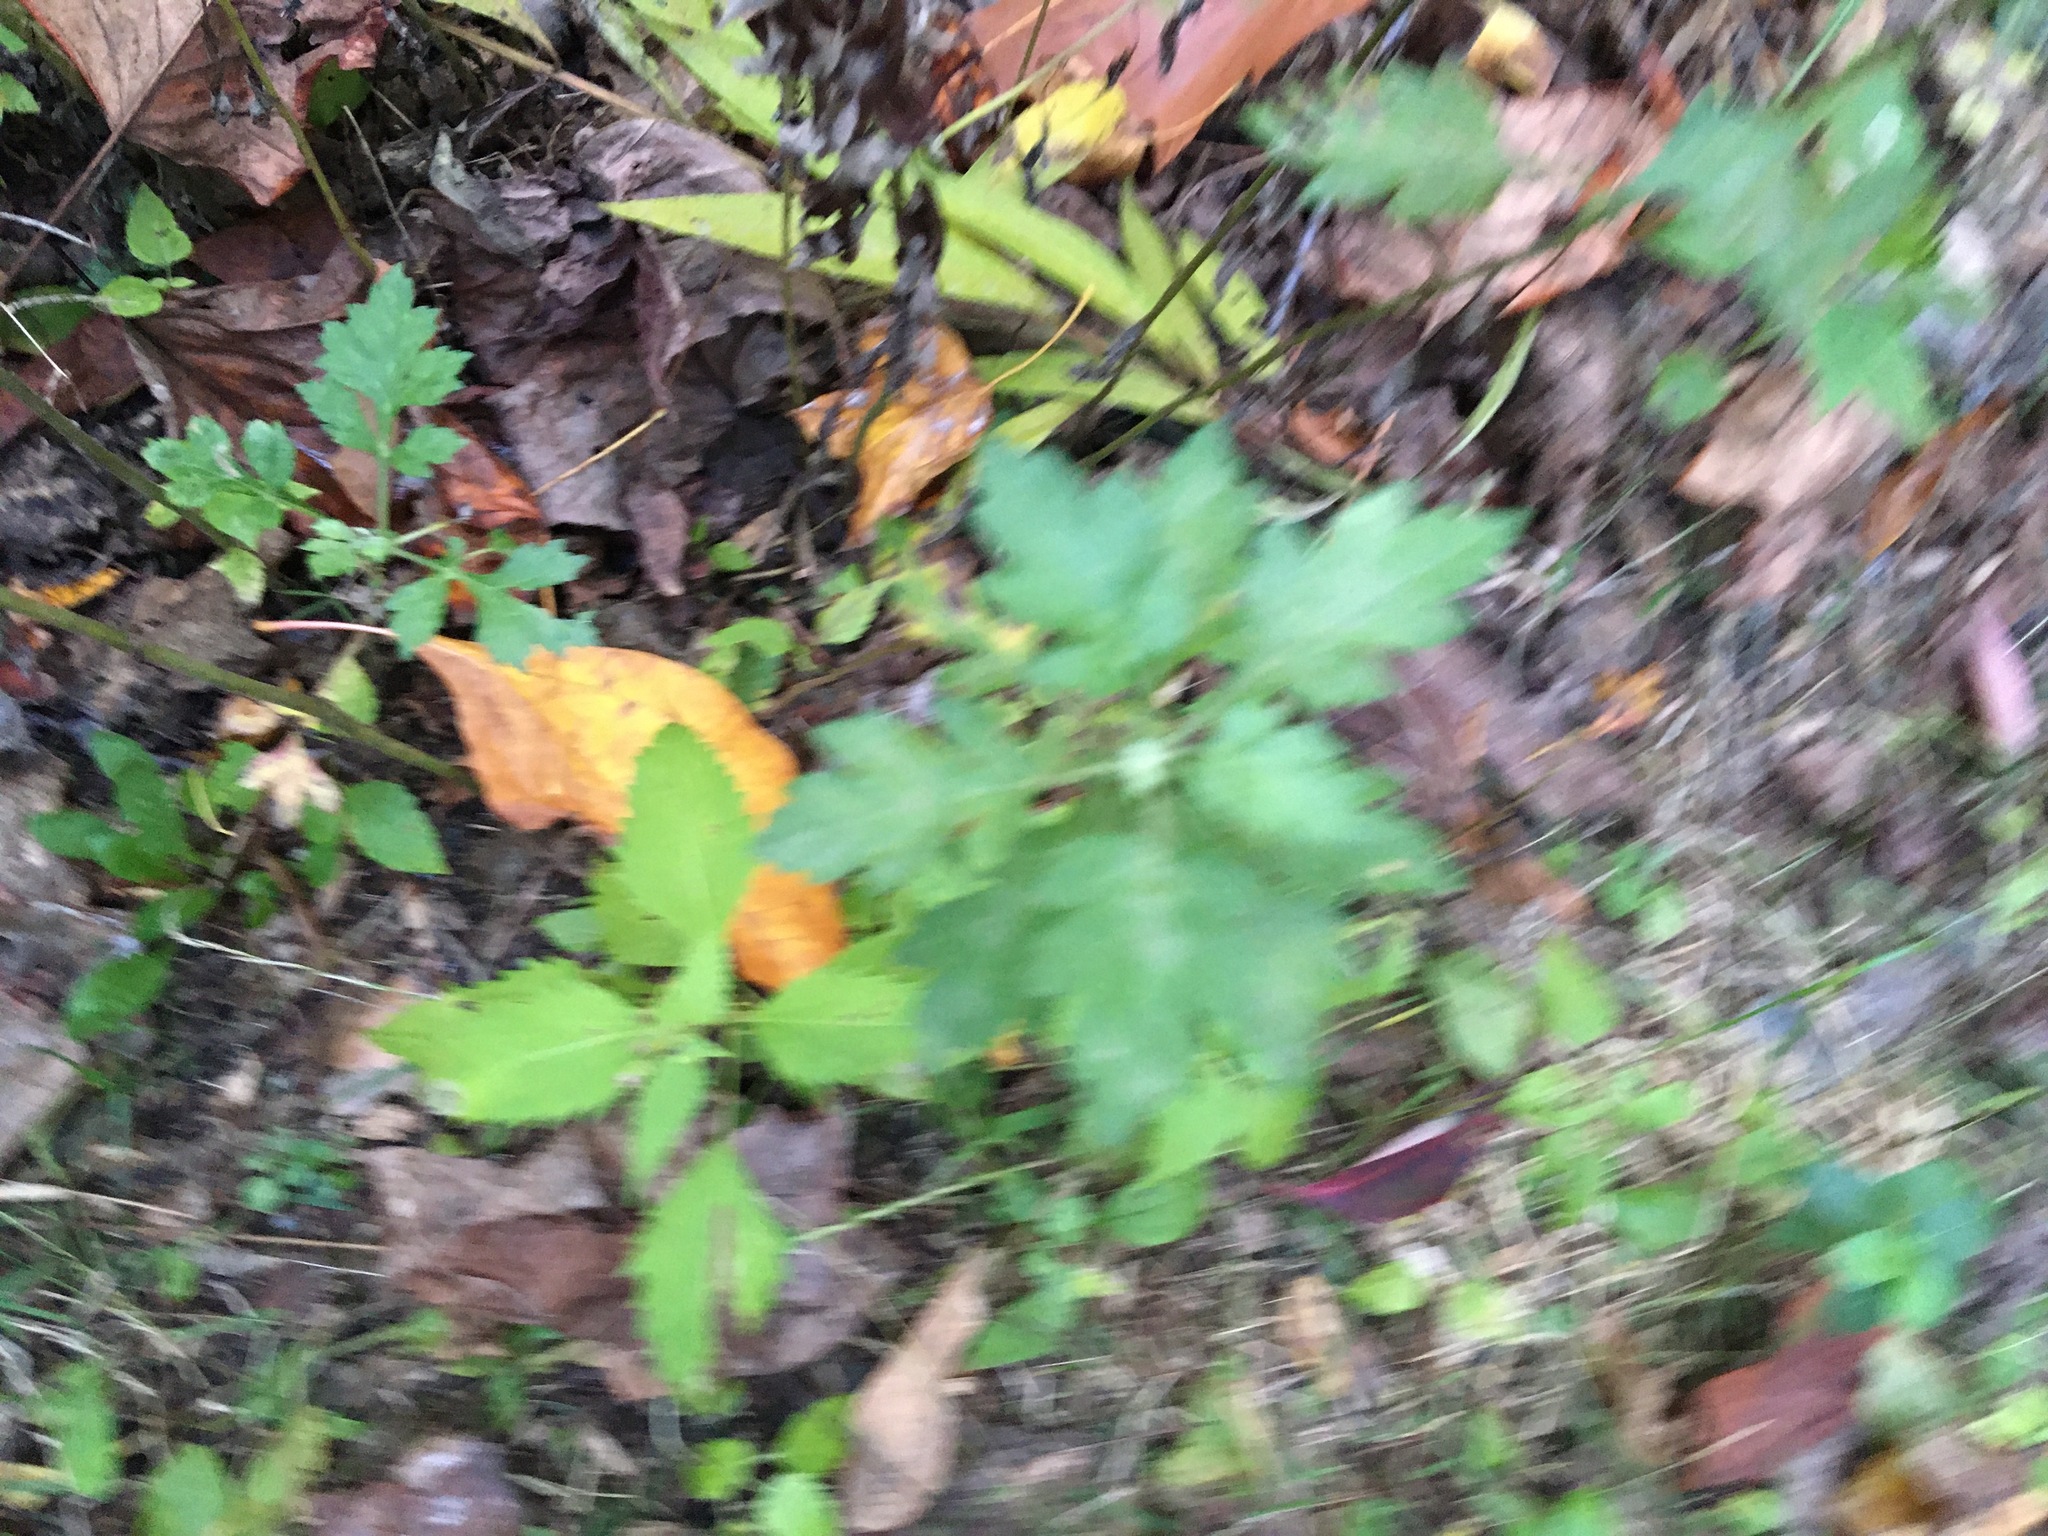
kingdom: Plantae
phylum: Tracheophyta
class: Magnoliopsida
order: Asterales
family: Asteraceae
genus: Artemisia
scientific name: Artemisia vulgaris
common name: Mugwort
